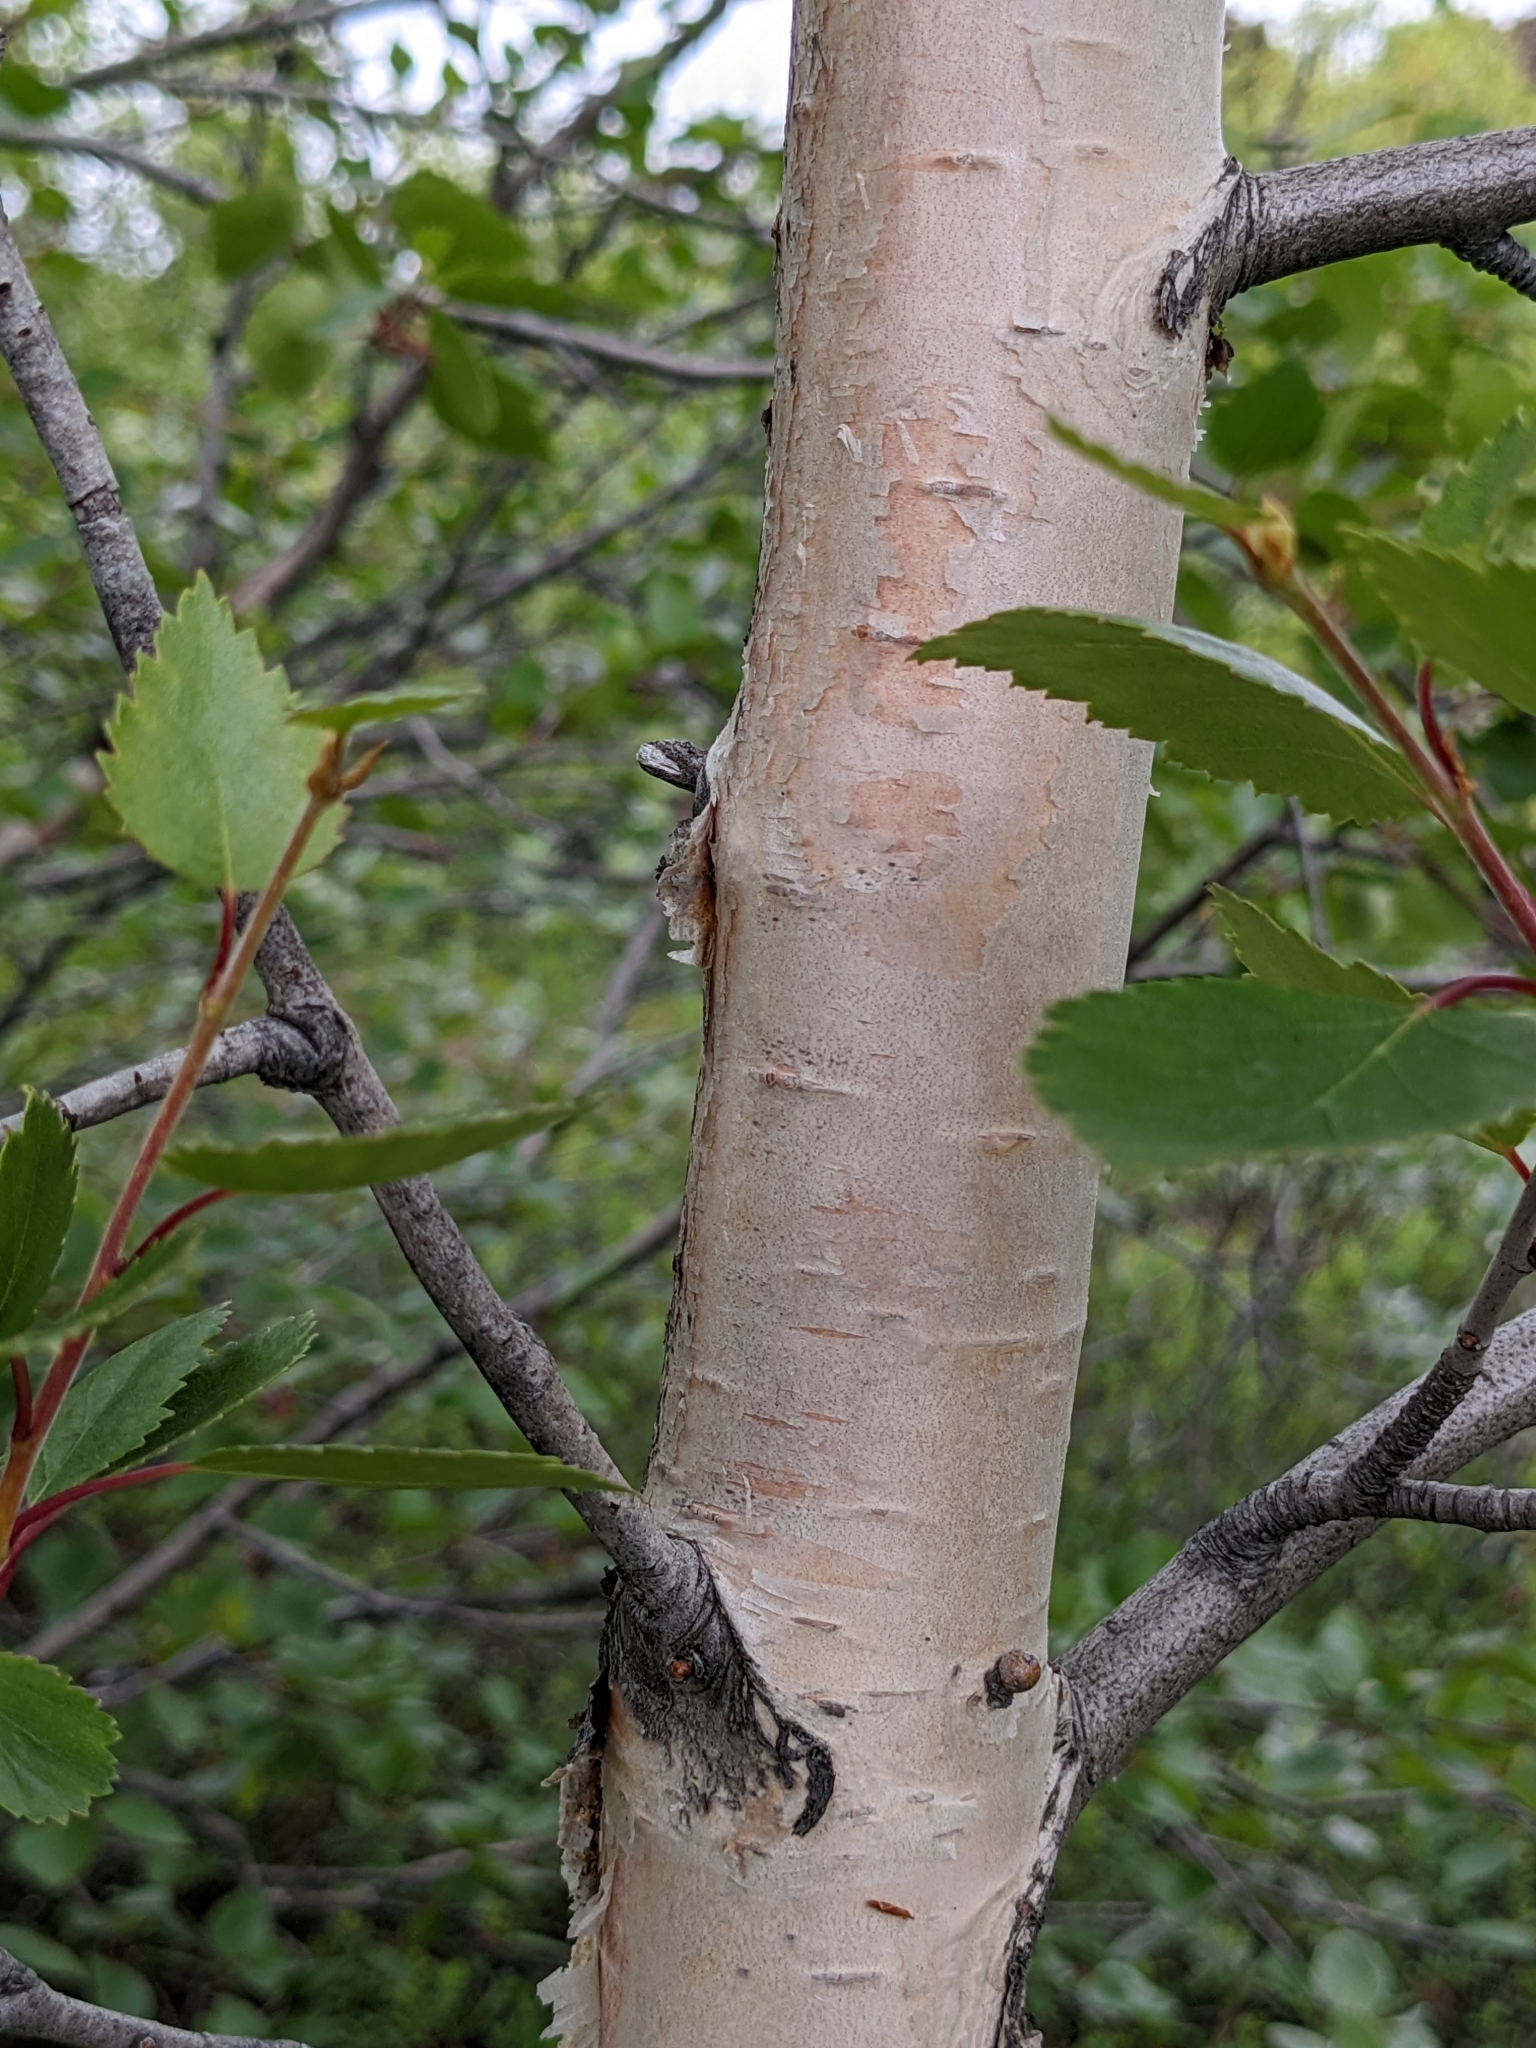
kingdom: Plantae
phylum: Tracheophyta
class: Magnoliopsida
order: Fagales
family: Betulaceae
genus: Betula
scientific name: Betula pubescens
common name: Downy birch
